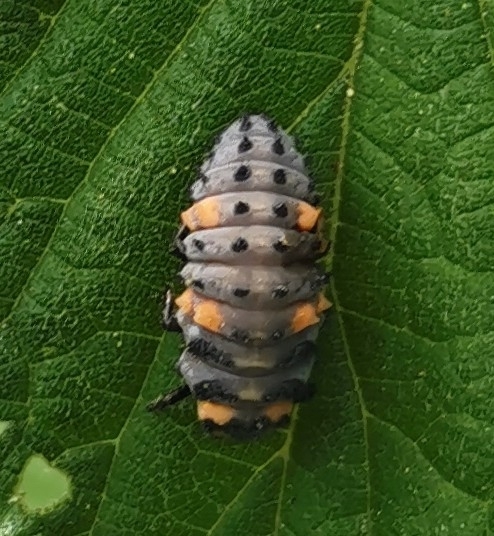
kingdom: Animalia
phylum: Arthropoda
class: Insecta
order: Coleoptera
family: Coccinellidae
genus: Coccinella
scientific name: Coccinella septempunctata
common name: Sevenspotted lady beetle
